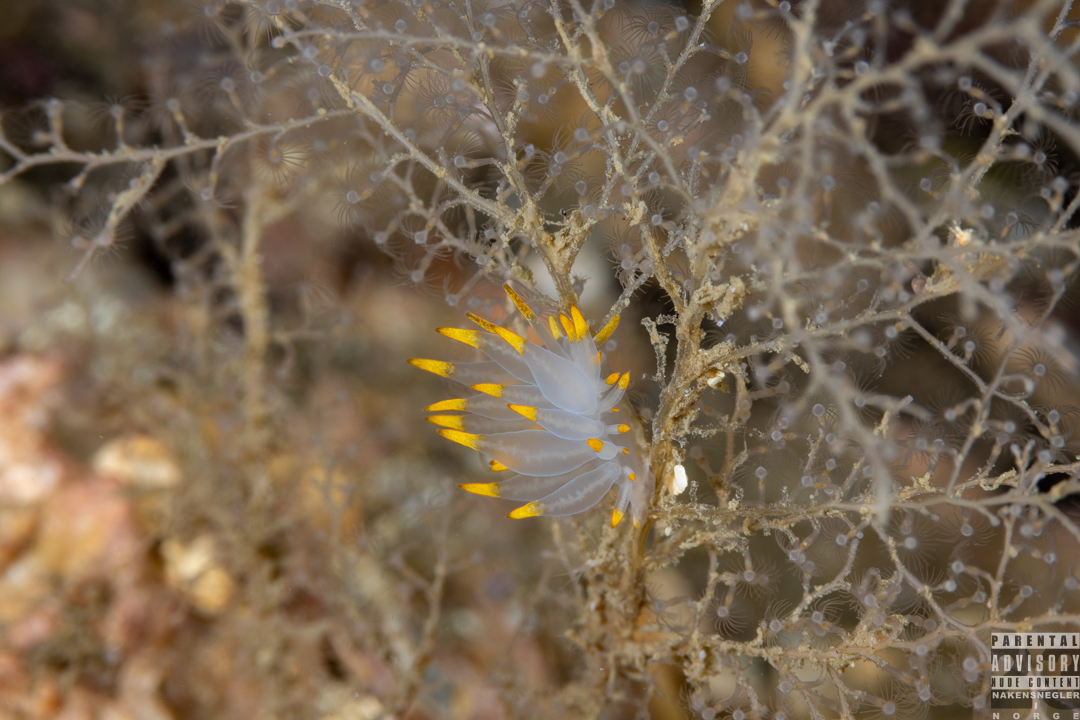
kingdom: Animalia
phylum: Mollusca
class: Gastropoda
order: Nudibranchia
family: Eubranchidae
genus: Amphorina
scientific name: Amphorina farrani
